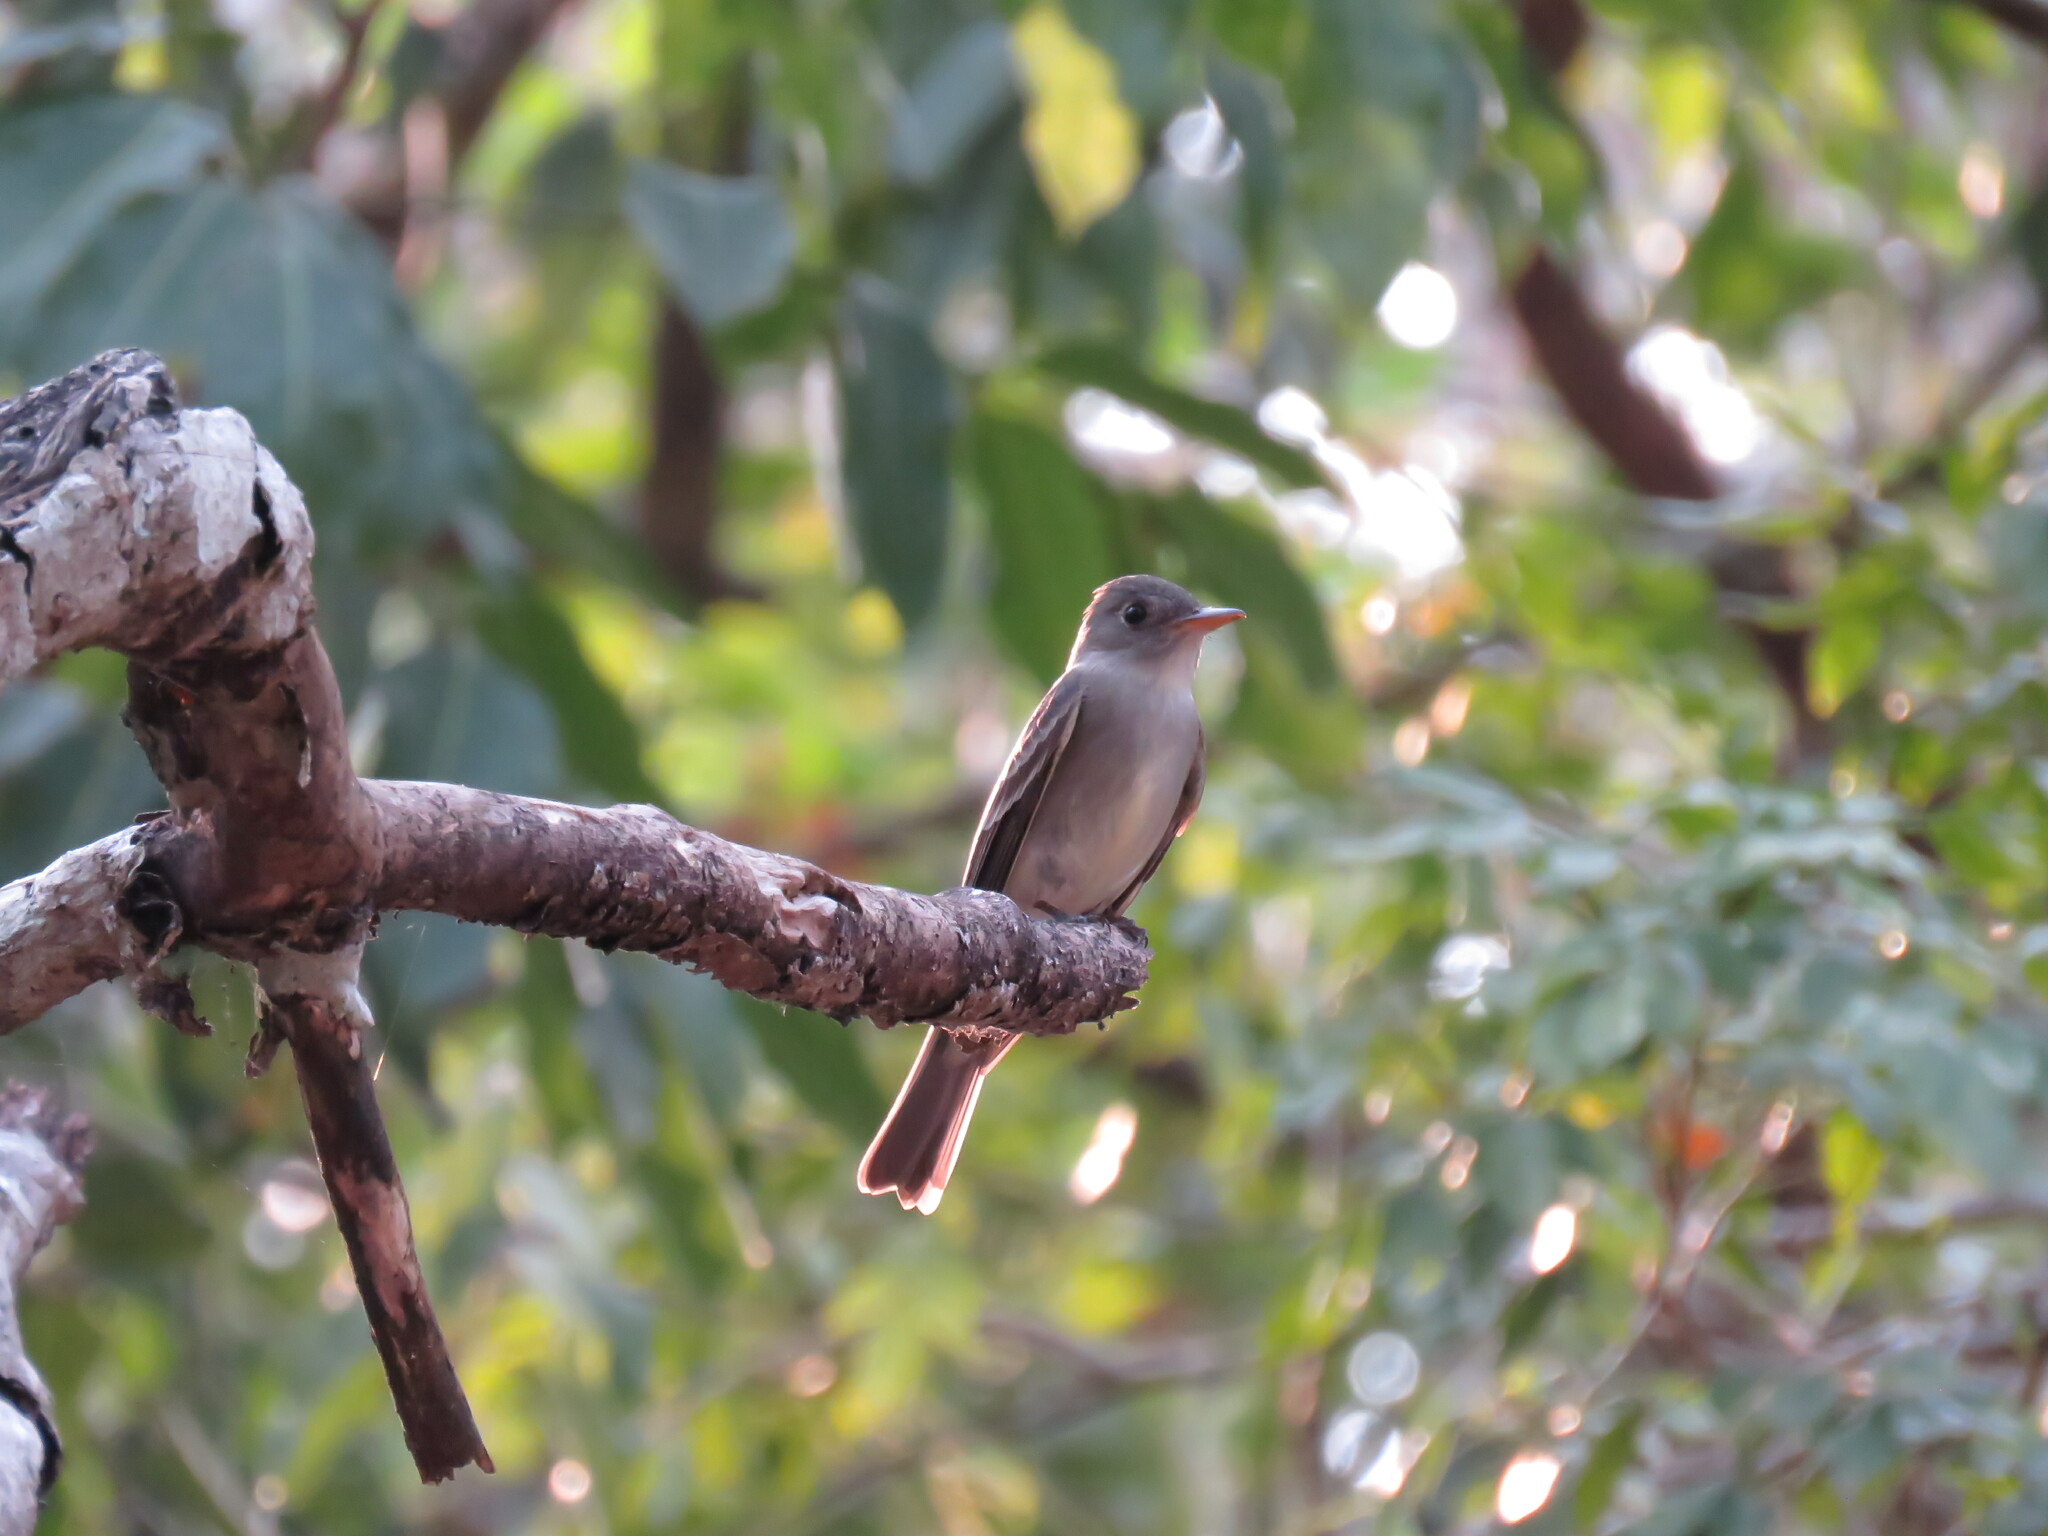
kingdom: Animalia
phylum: Chordata
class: Aves
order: Passeriformes
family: Tyrannidae
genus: Contopus
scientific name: Contopus virens
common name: Eastern wood-pewee
